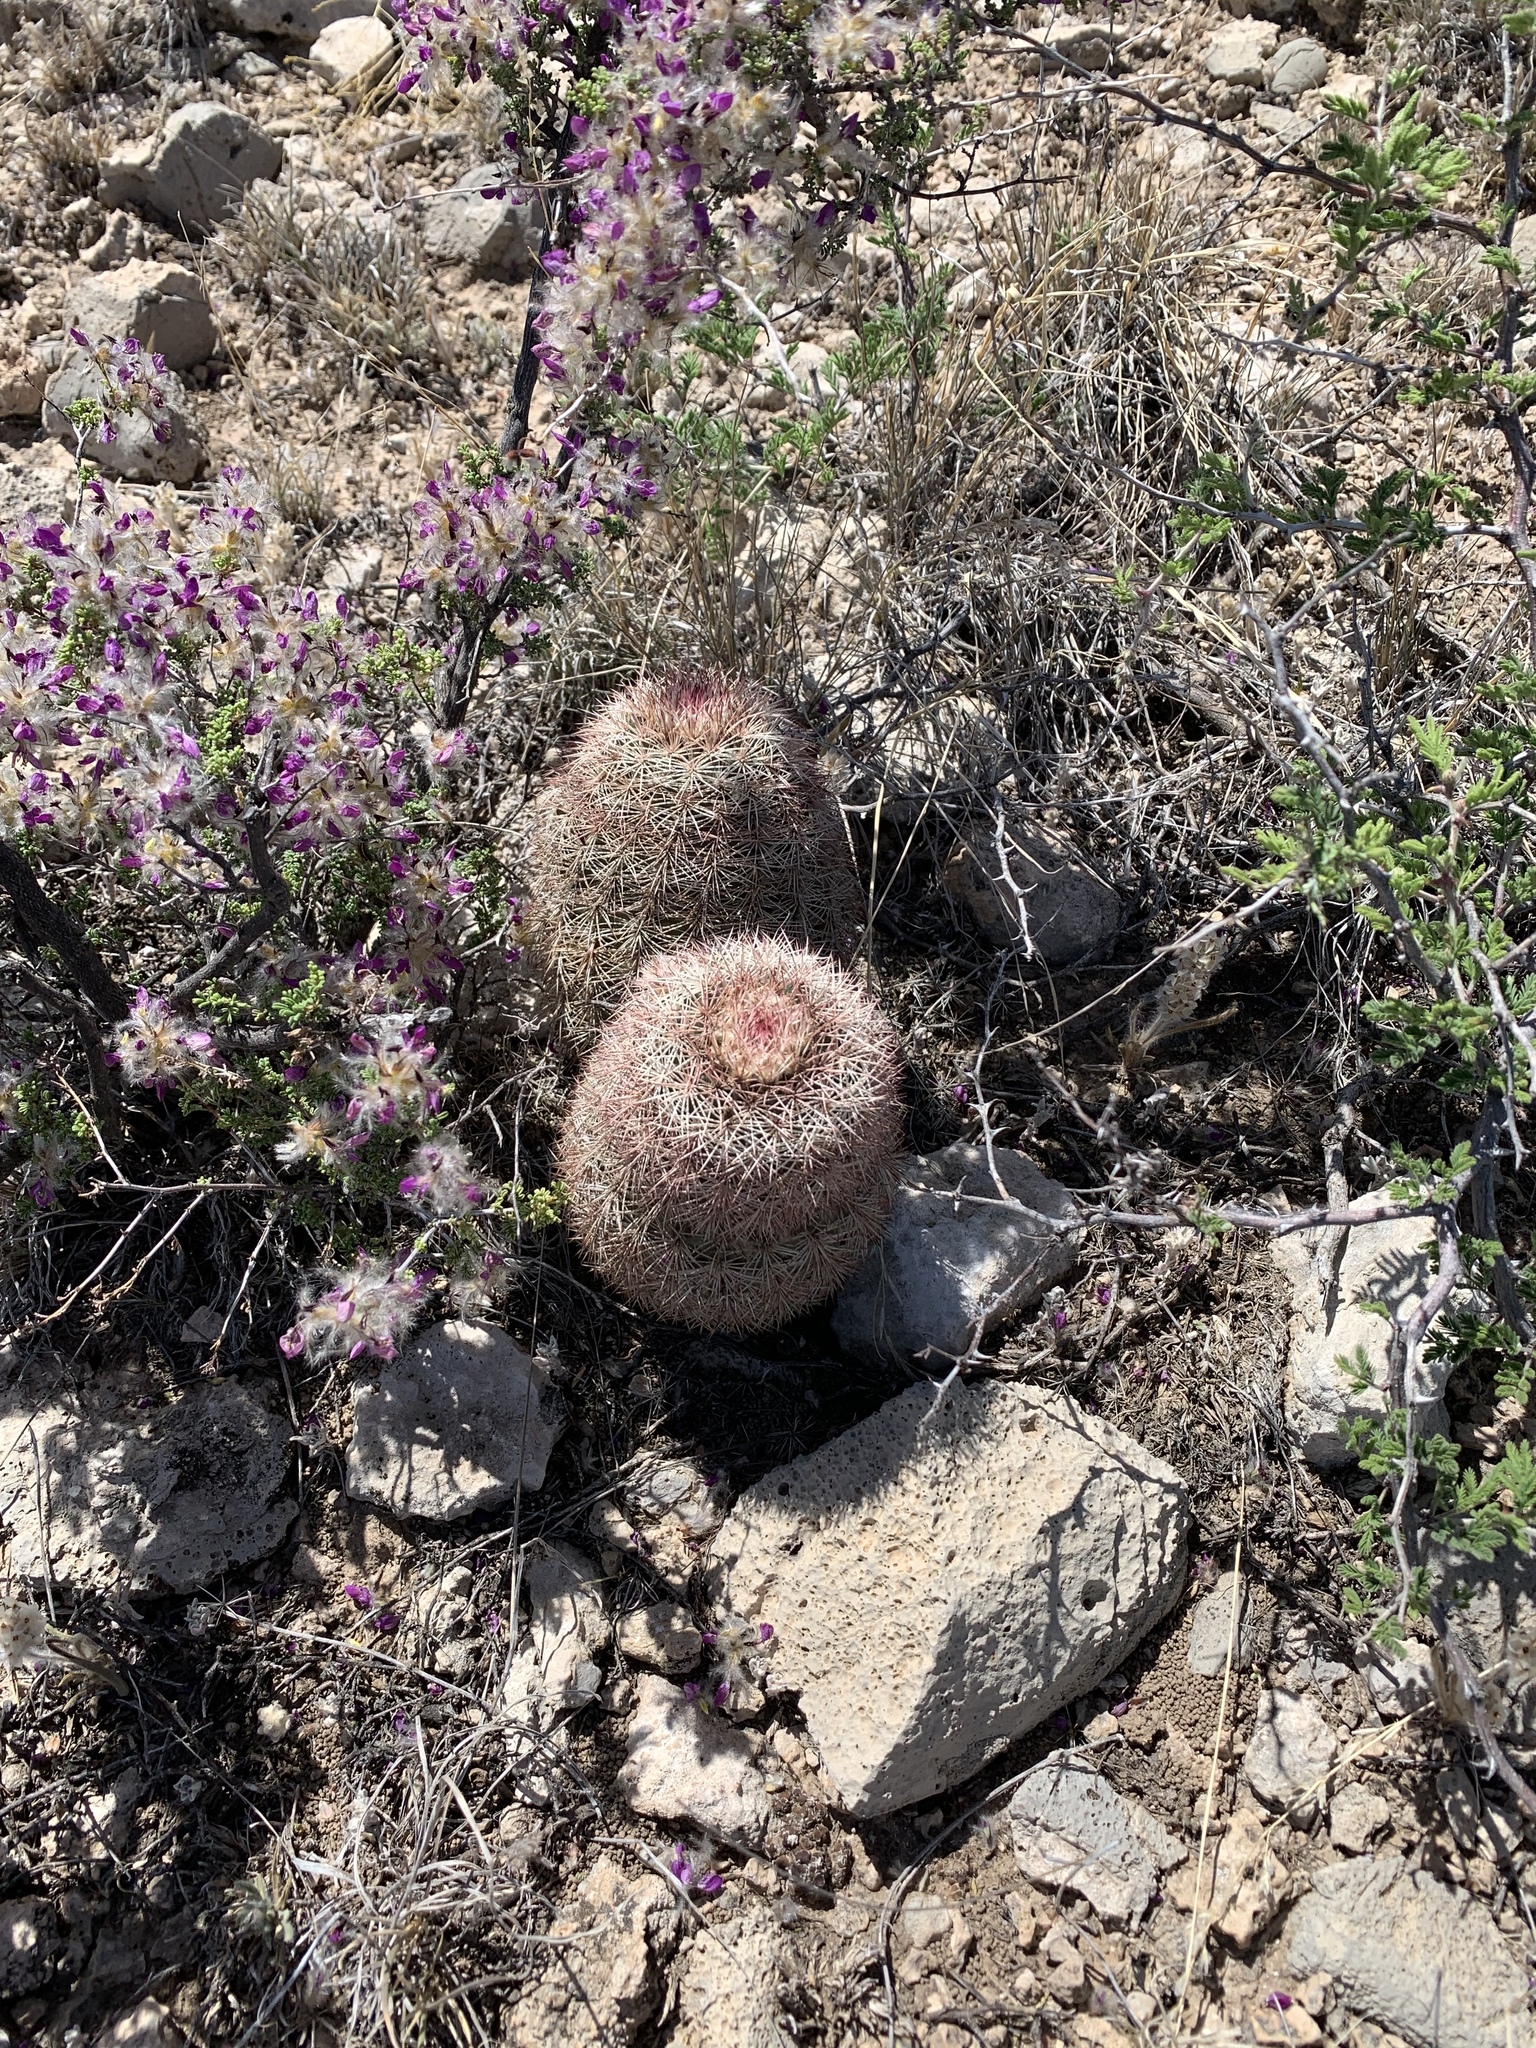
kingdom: Plantae
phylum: Tracheophyta
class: Magnoliopsida
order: Caryophyllales
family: Cactaceae
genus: Echinocereus
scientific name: Echinocereus dasyacanthus
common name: Spiny hedgehog cactus
